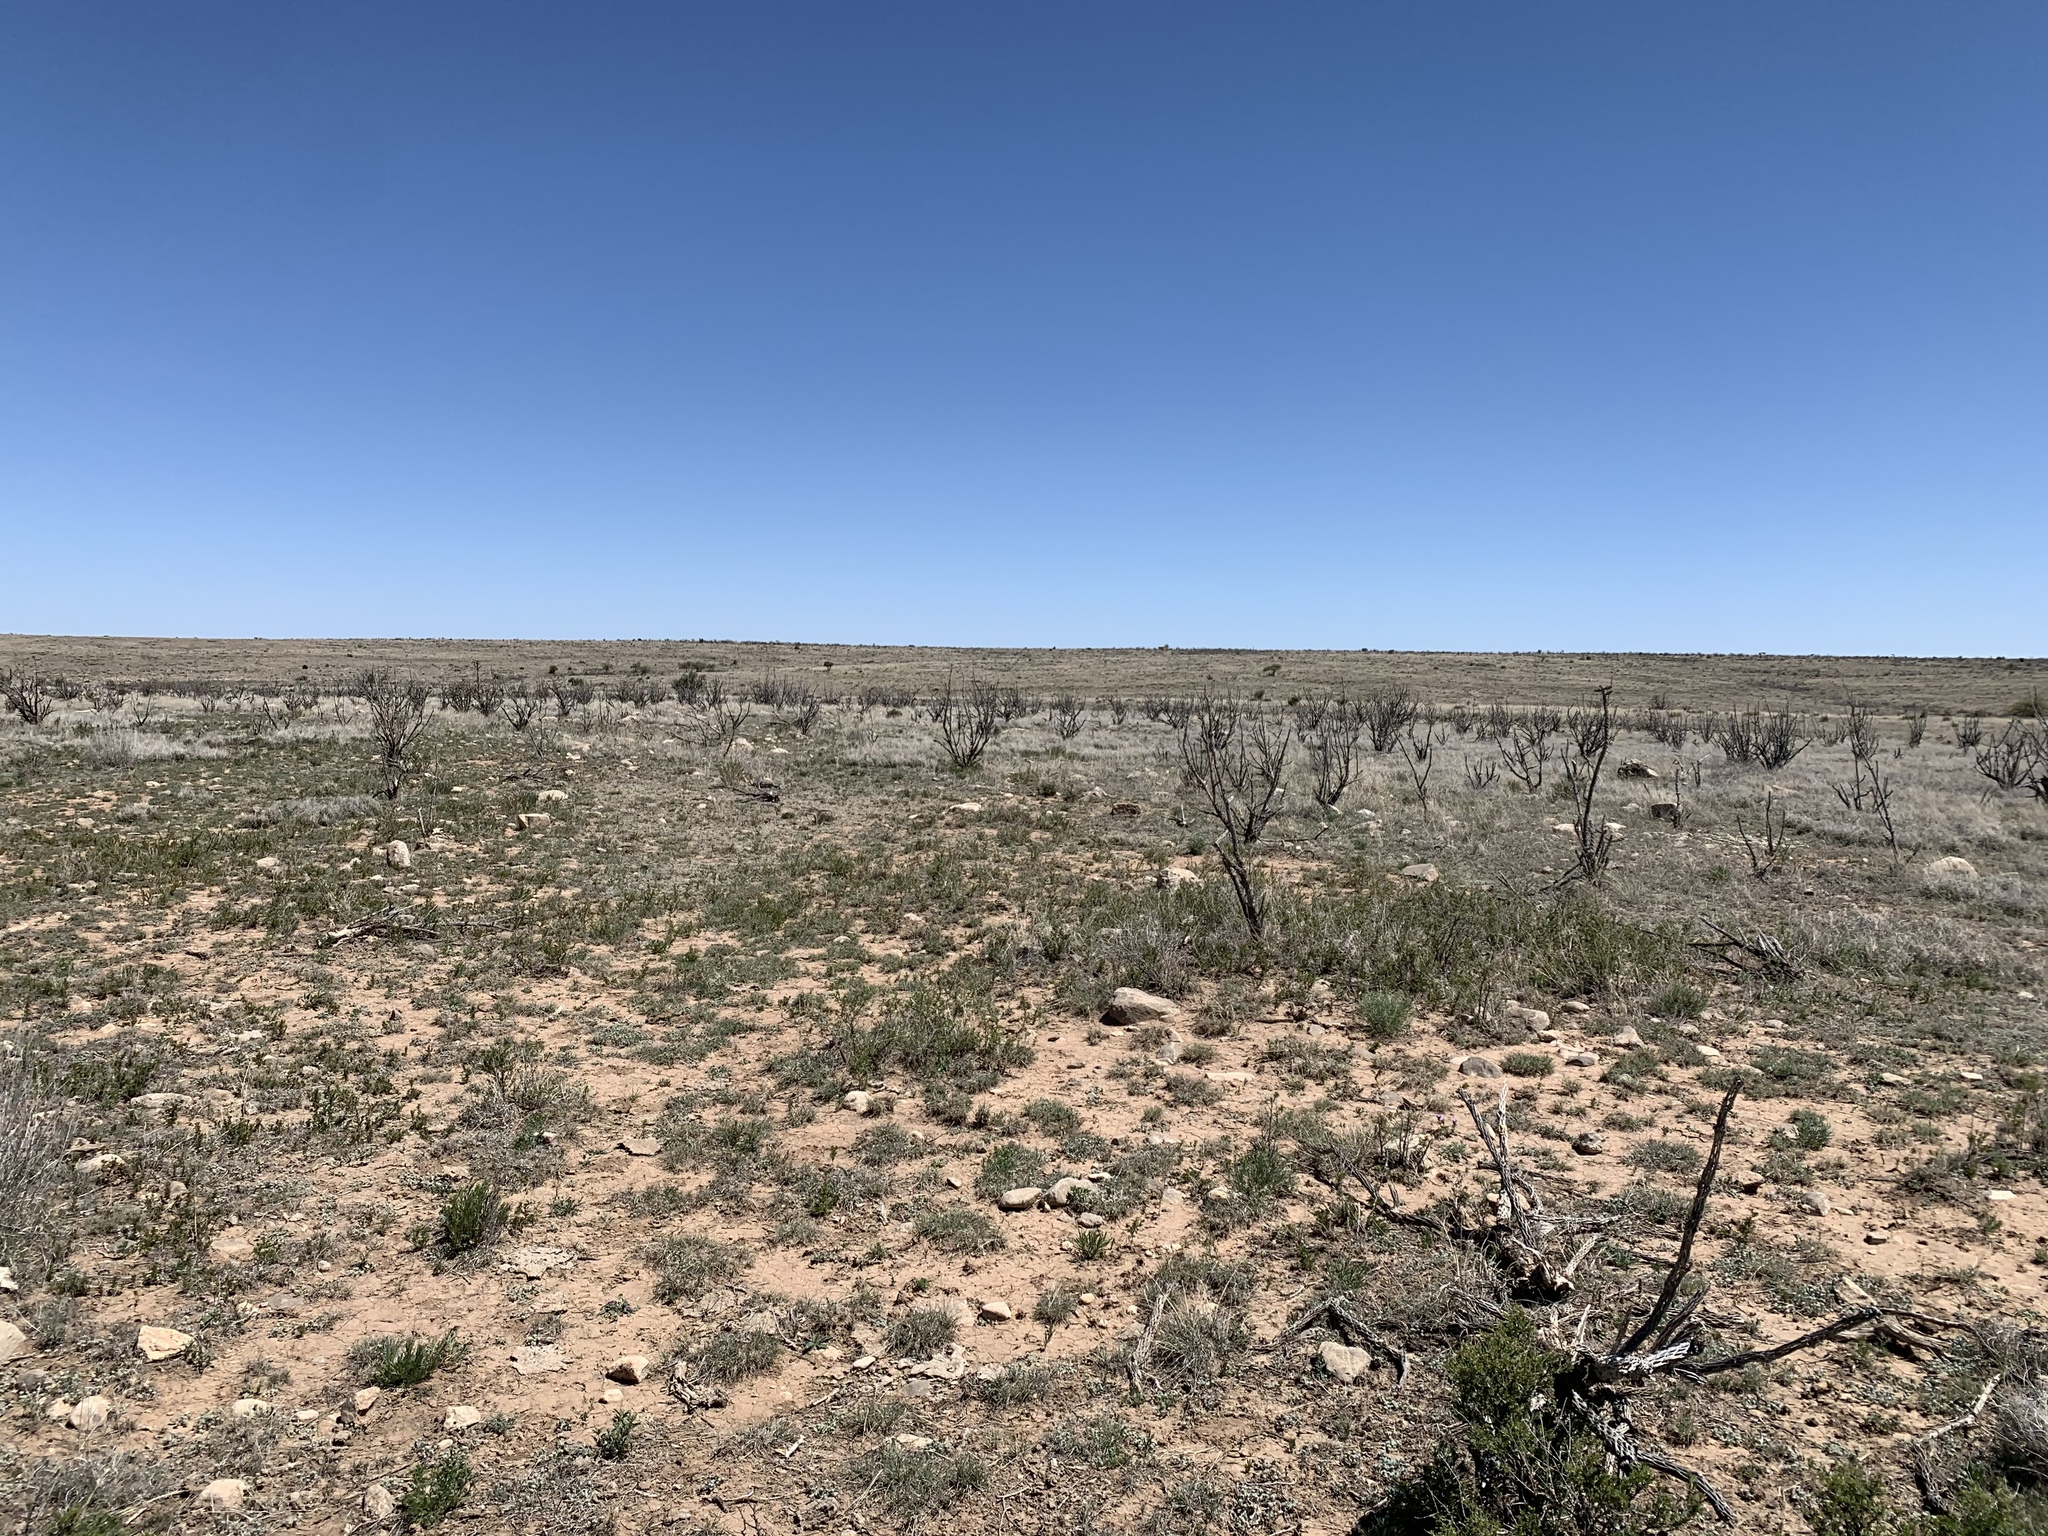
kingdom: Plantae
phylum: Tracheophyta
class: Magnoliopsida
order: Caryophyllales
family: Cactaceae
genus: Cylindropuntia
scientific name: Cylindropuntia imbricata
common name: Candelabrum cactus
